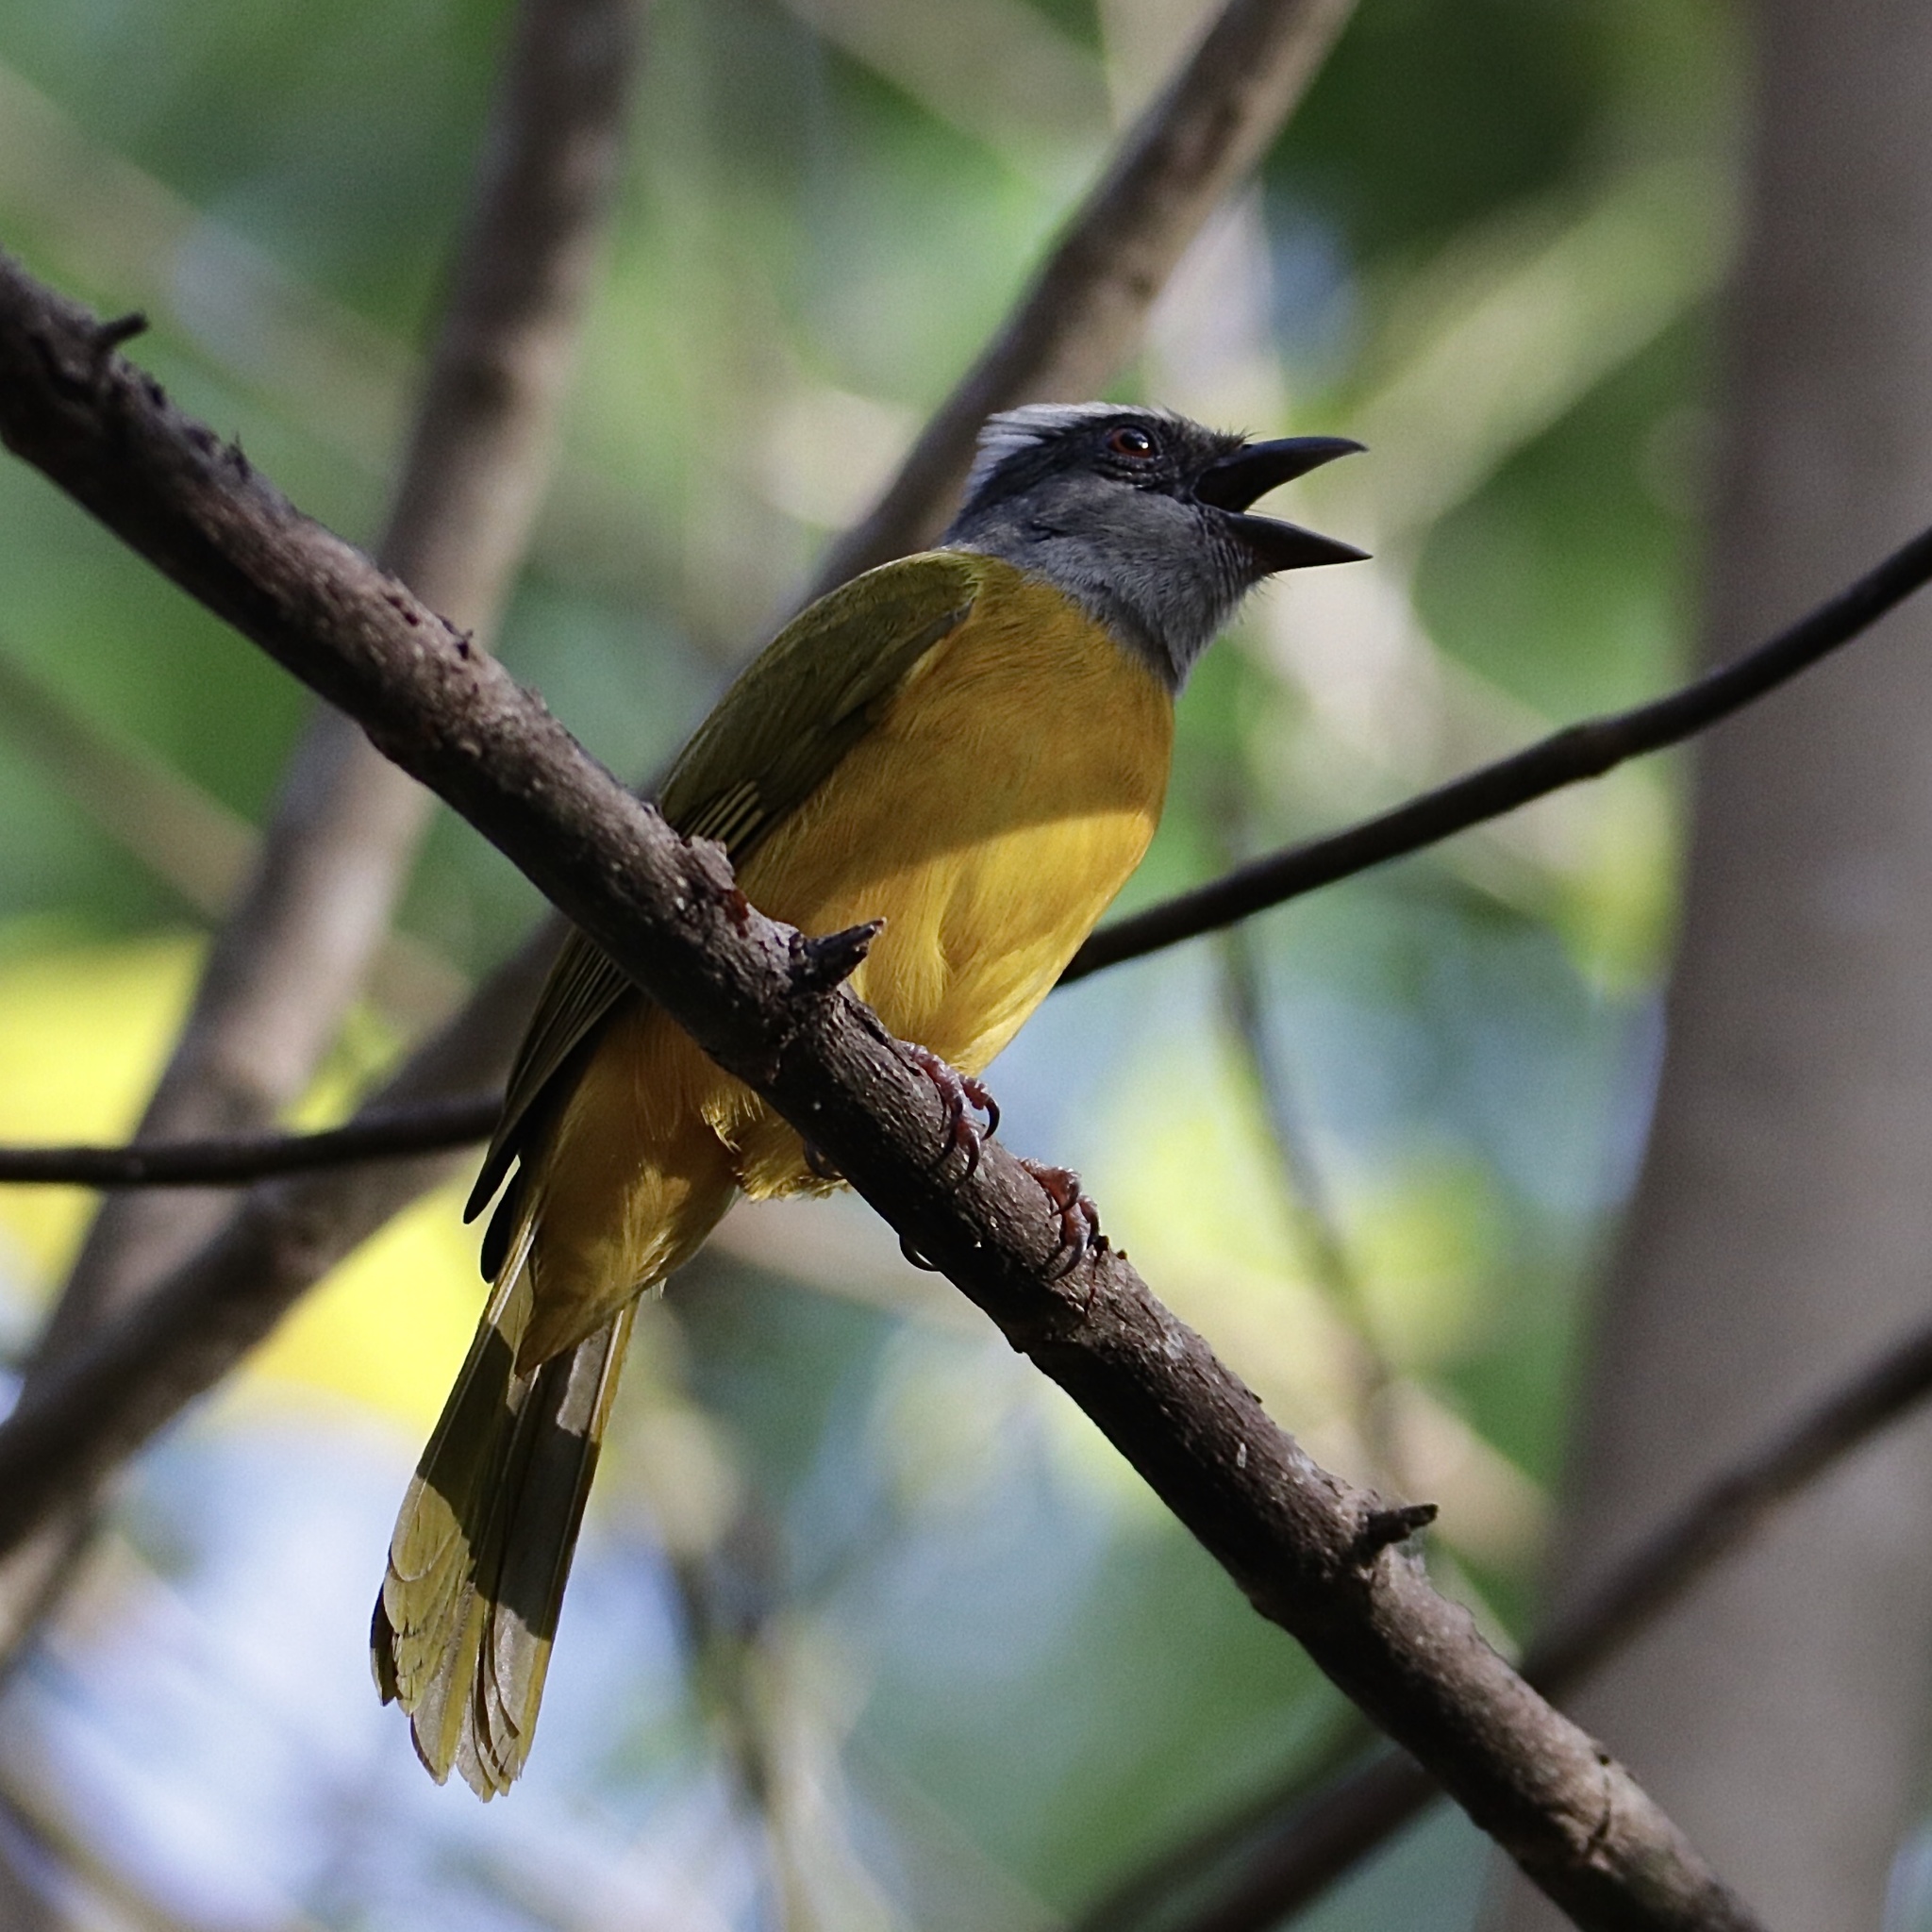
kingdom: Animalia
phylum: Chordata
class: Aves
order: Passeriformes
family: Thraupidae
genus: Eucometis
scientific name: Eucometis penicillata
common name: Grey-headed tanager
